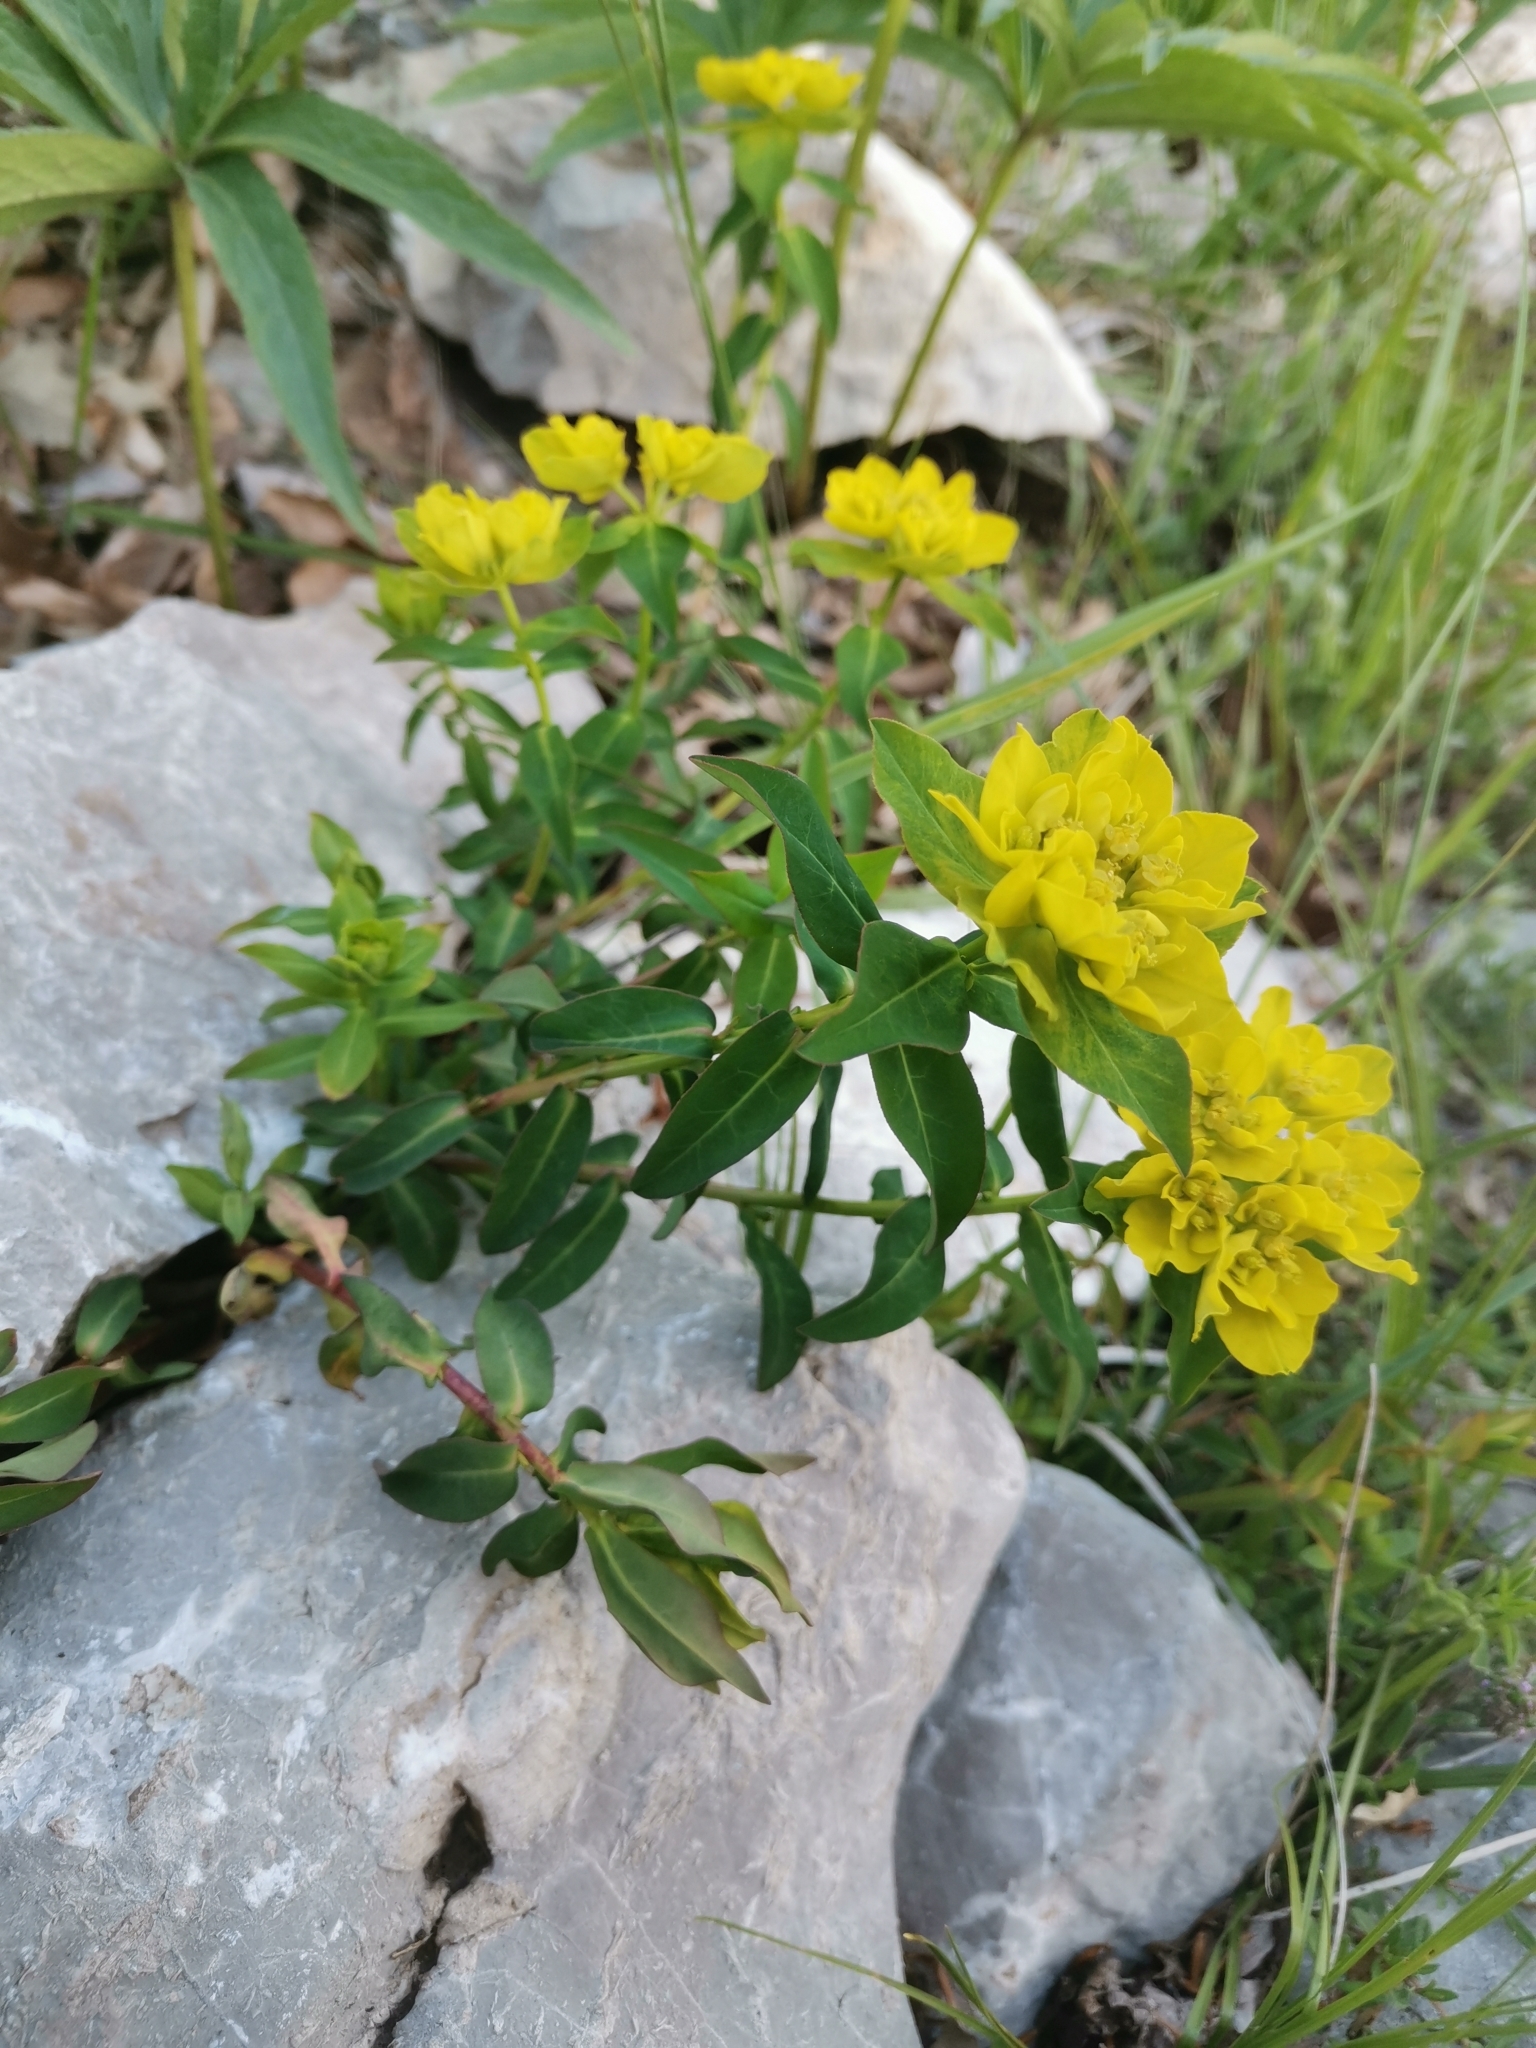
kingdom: Plantae
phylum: Tracheophyta
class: Magnoliopsida
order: Malpighiales
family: Euphorbiaceae
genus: Euphorbia
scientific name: Euphorbia verrucosa
